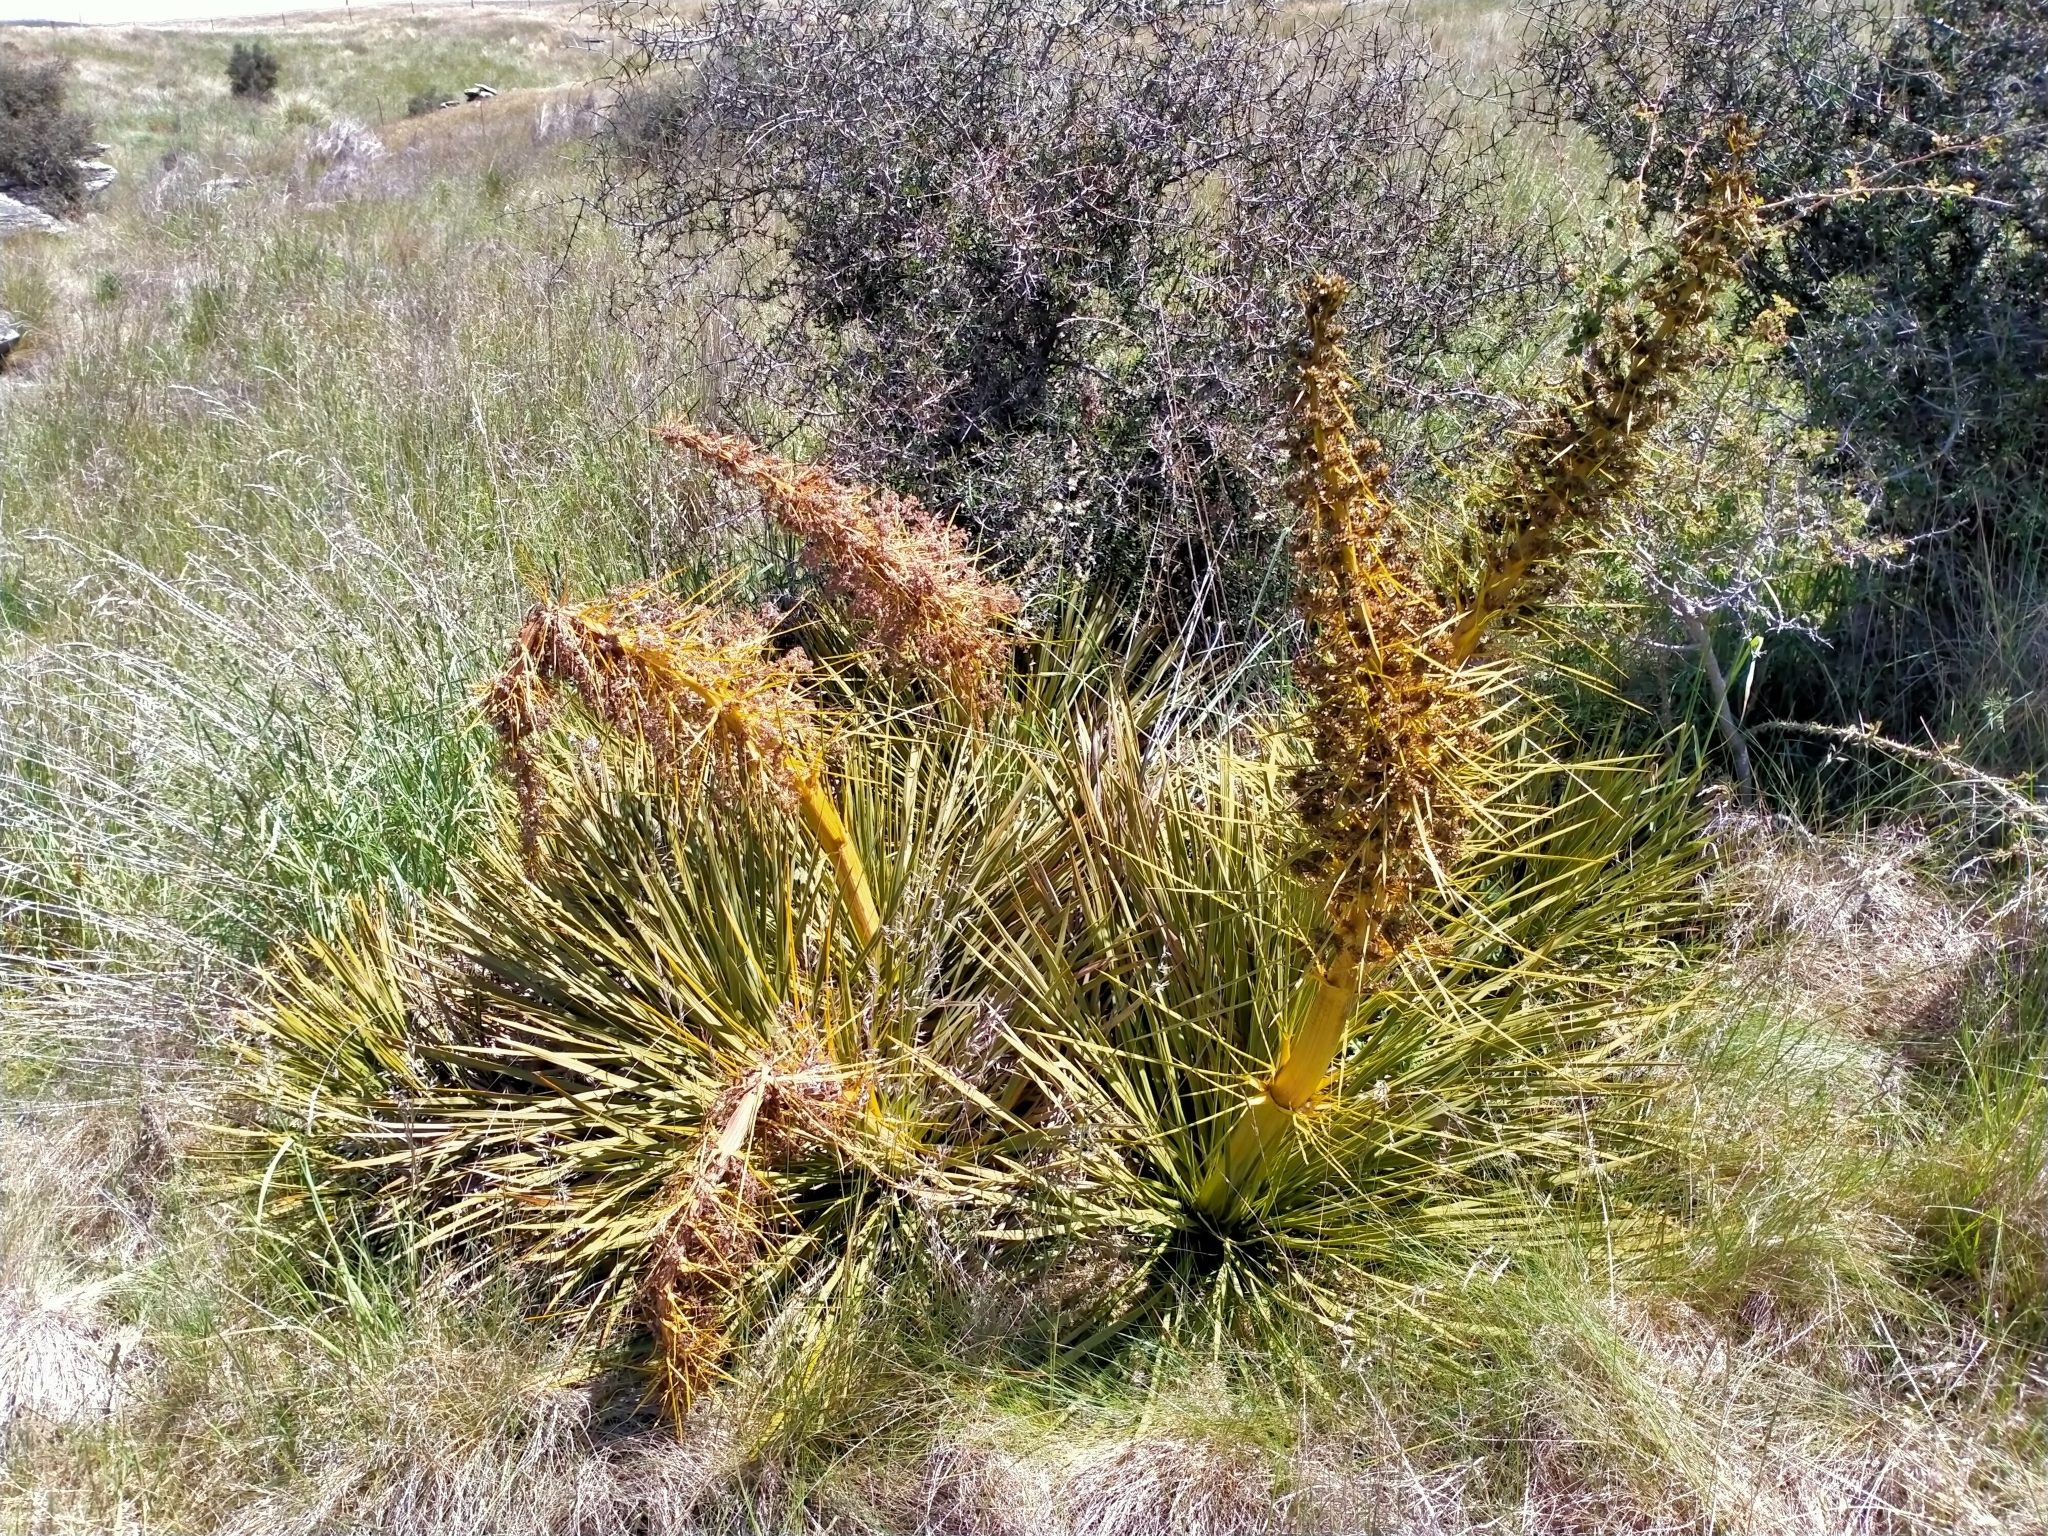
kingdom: Plantae
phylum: Tracheophyta
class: Magnoliopsida
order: Apiales
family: Apiaceae
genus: Aciphylla
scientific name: Aciphylla aurea
